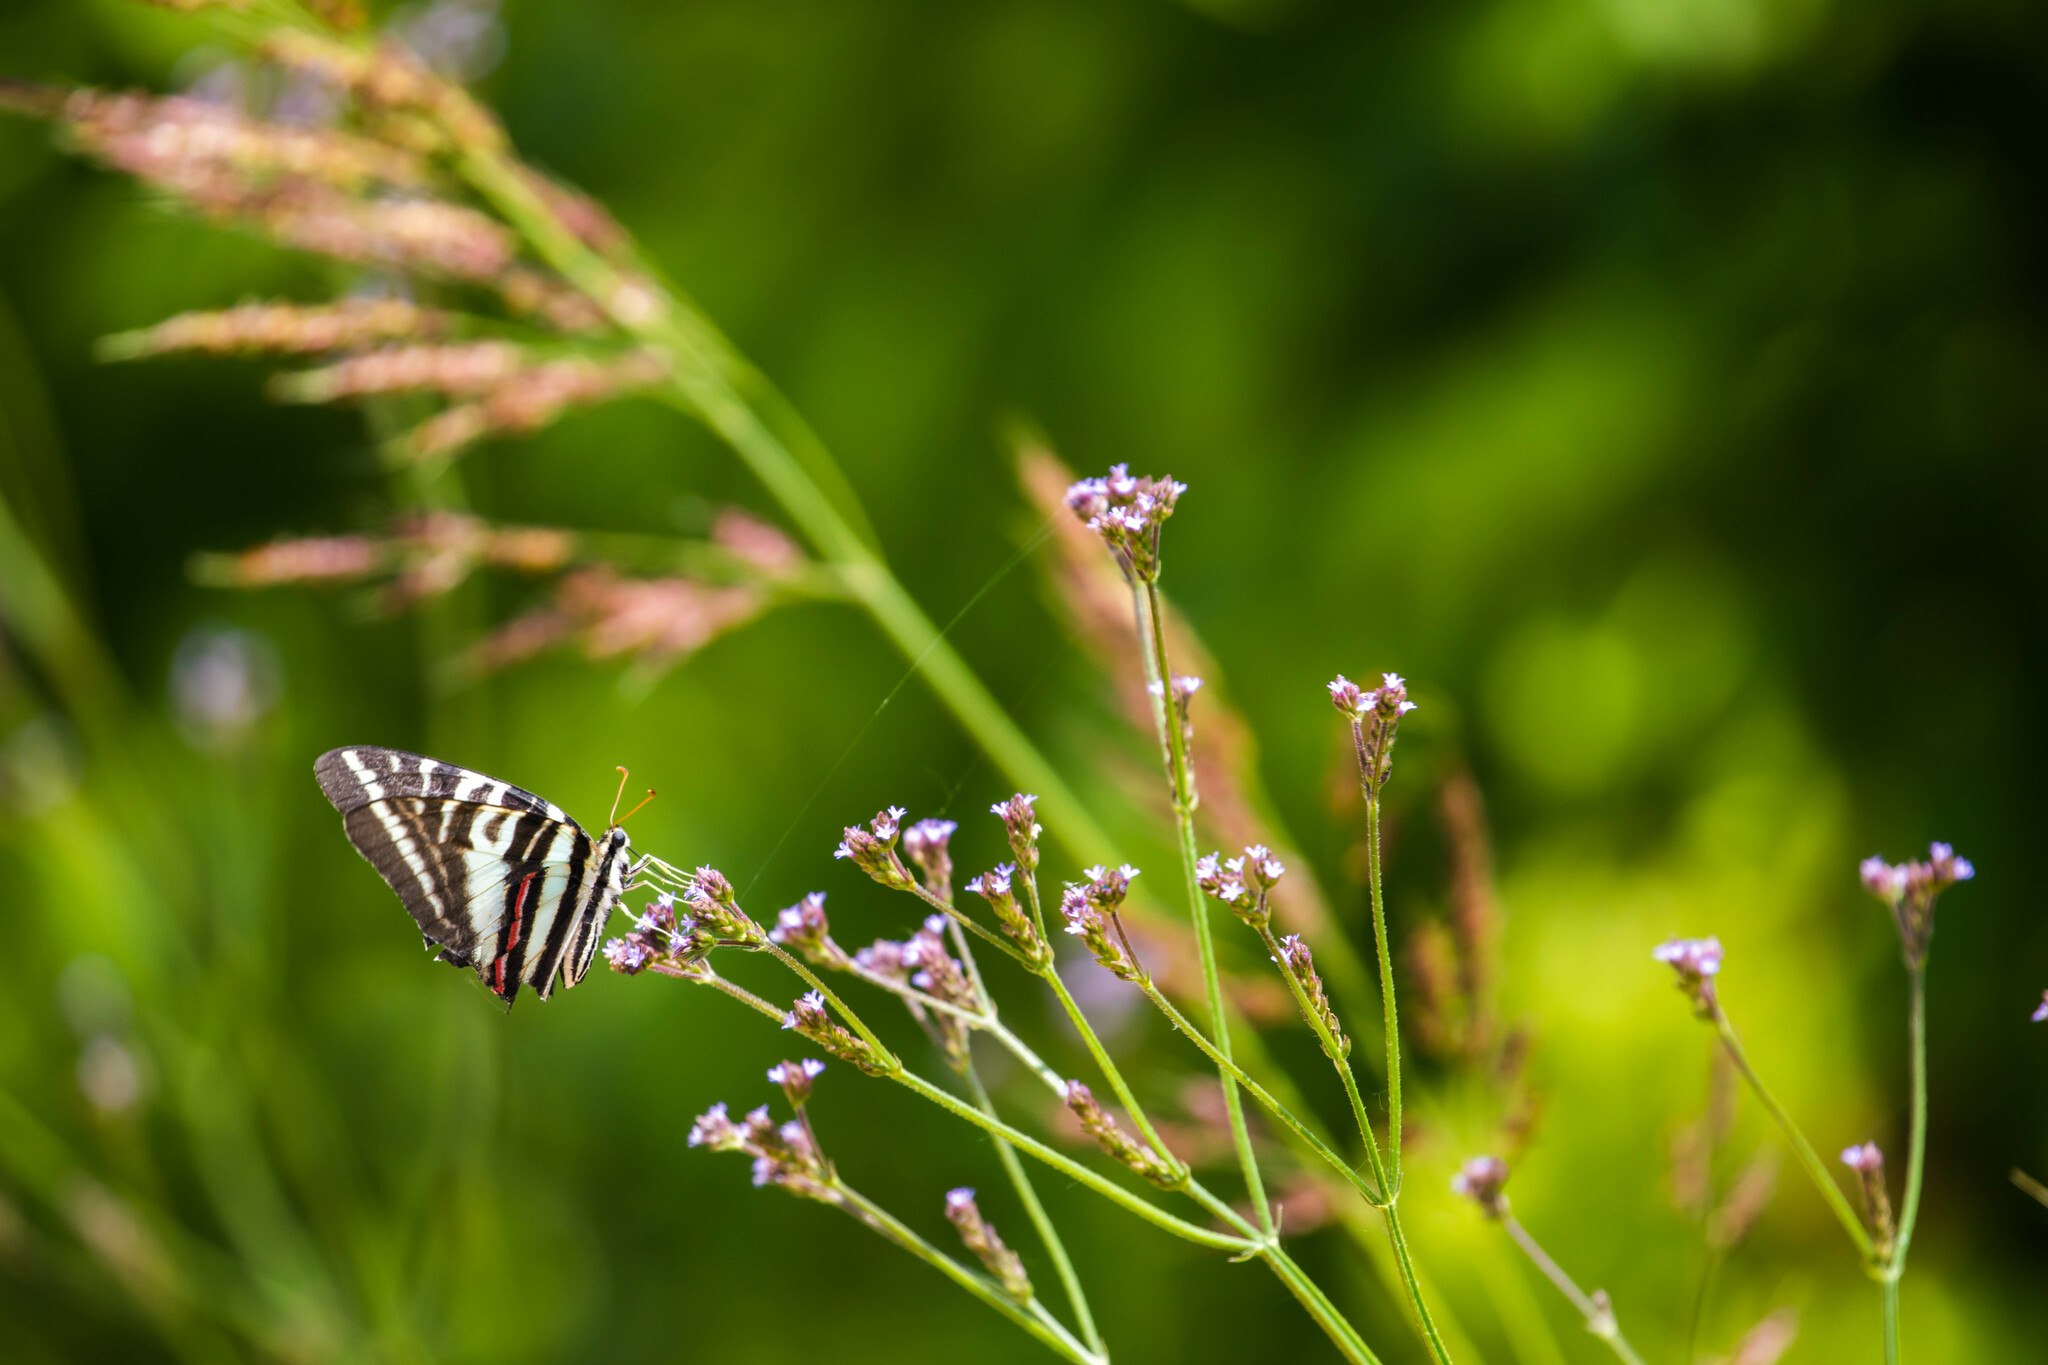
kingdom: Animalia
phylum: Arthropoda
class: Insecta
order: Lepidoptera
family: Papilionidae
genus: Protographium
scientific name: Protographium marcellus
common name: Zebra swallowtail
